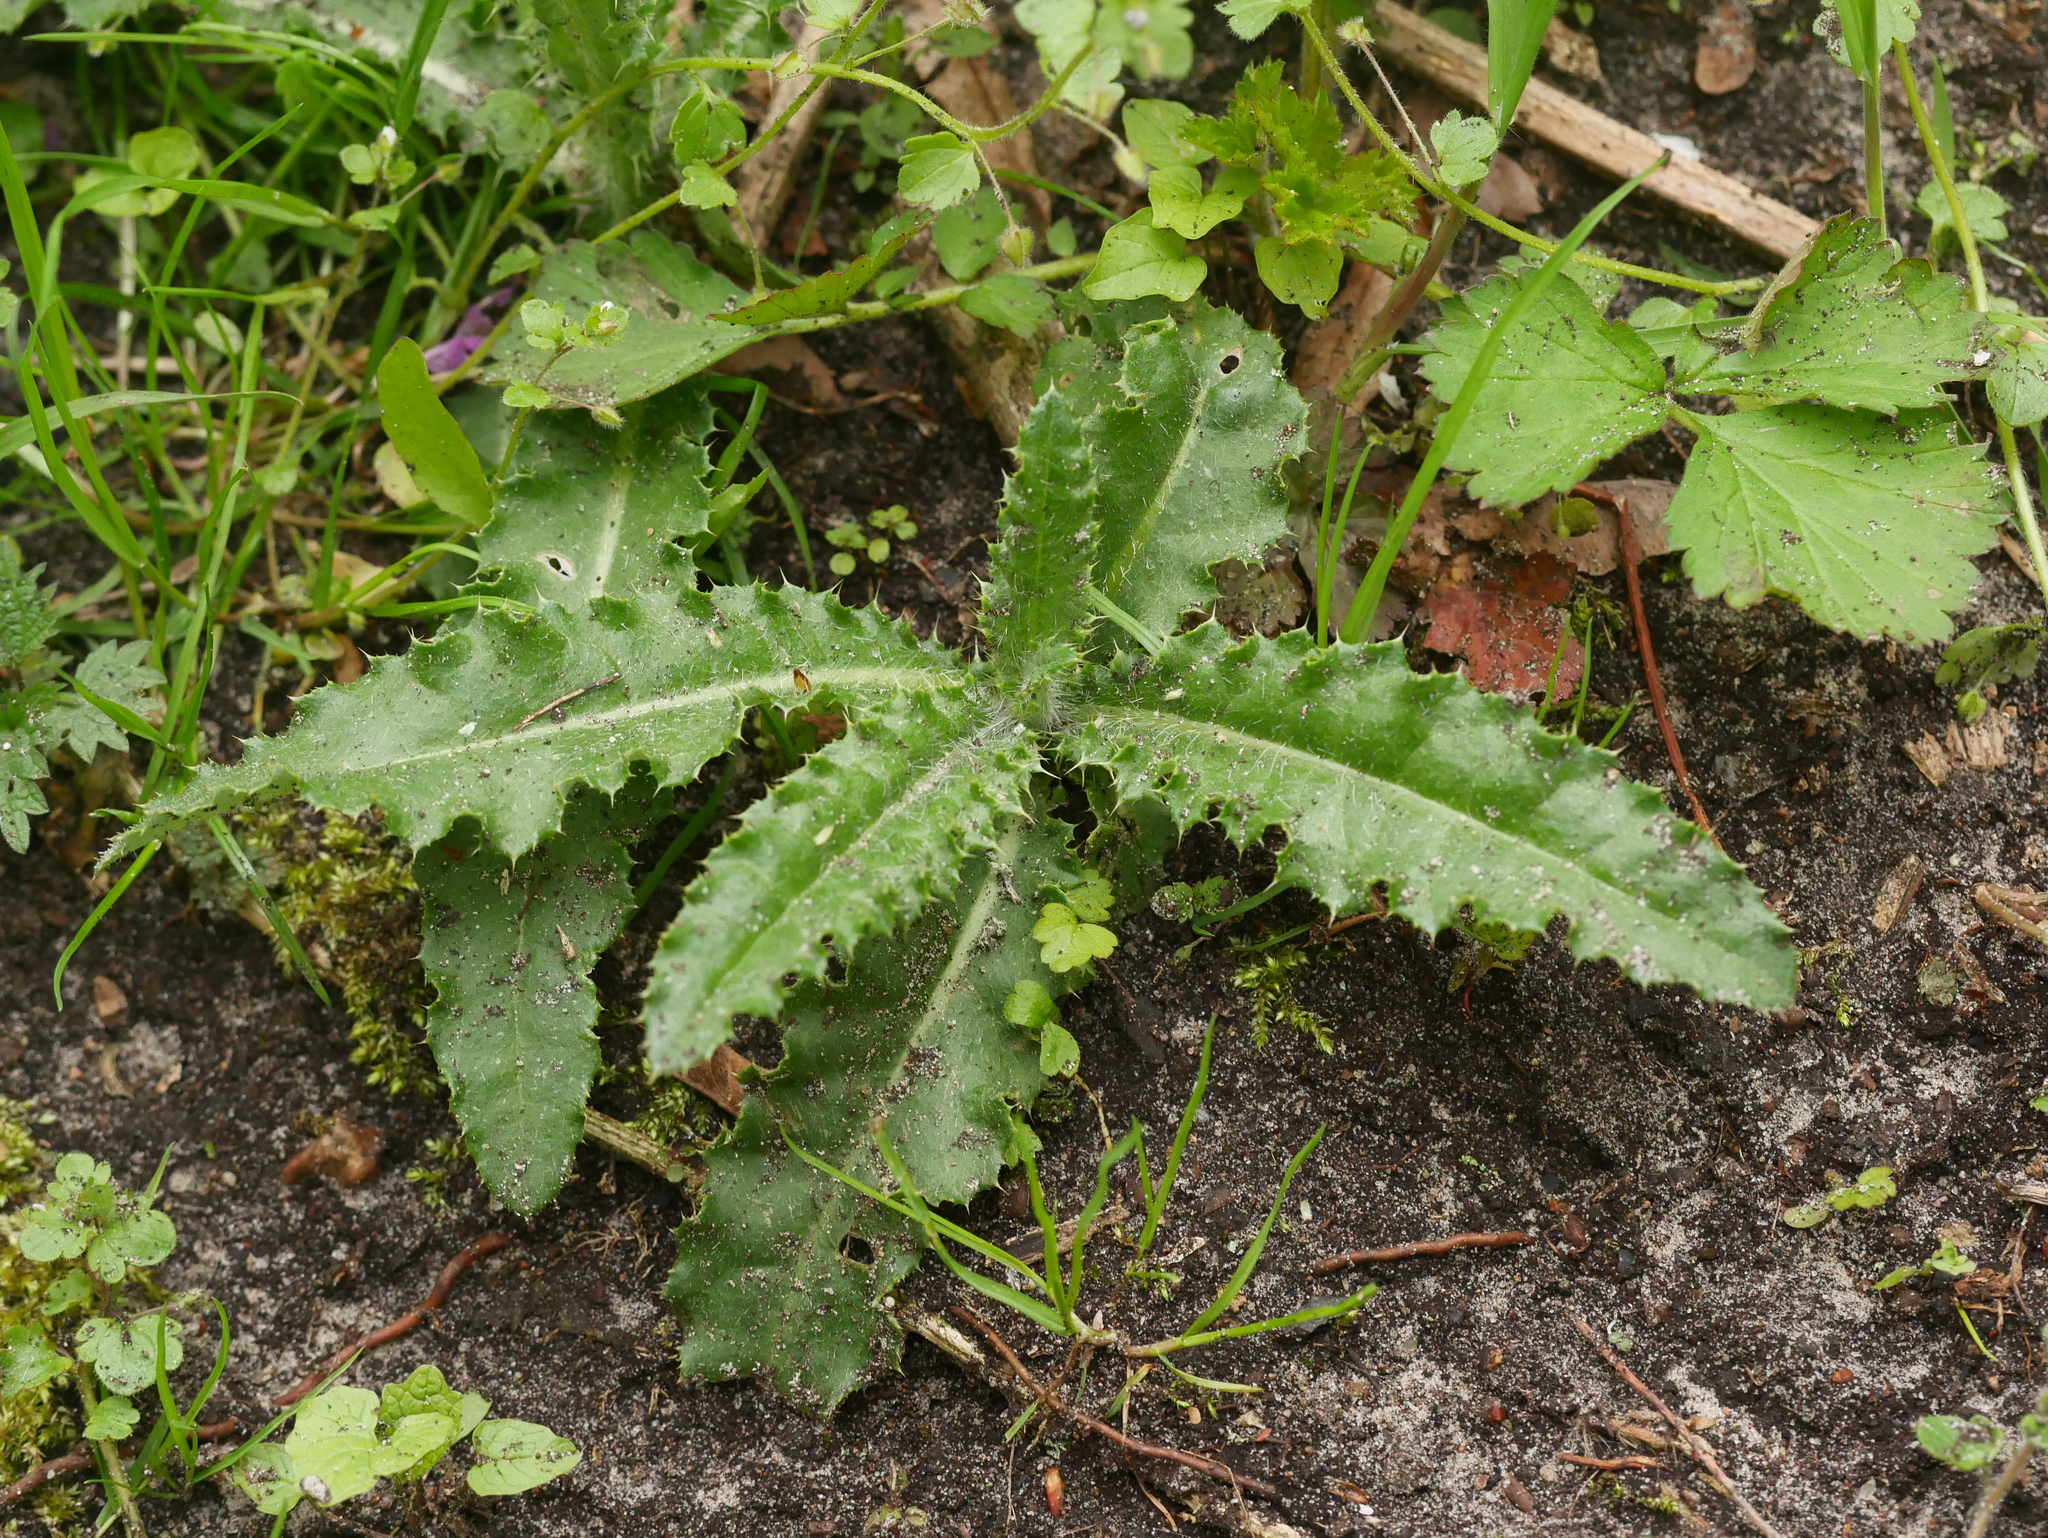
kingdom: Plantae
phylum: Tracheophyta
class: Magnoliopsida
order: Asterales
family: Asteraceae
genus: Cirsium
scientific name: Cirsium arvense
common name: Creeping thistle
